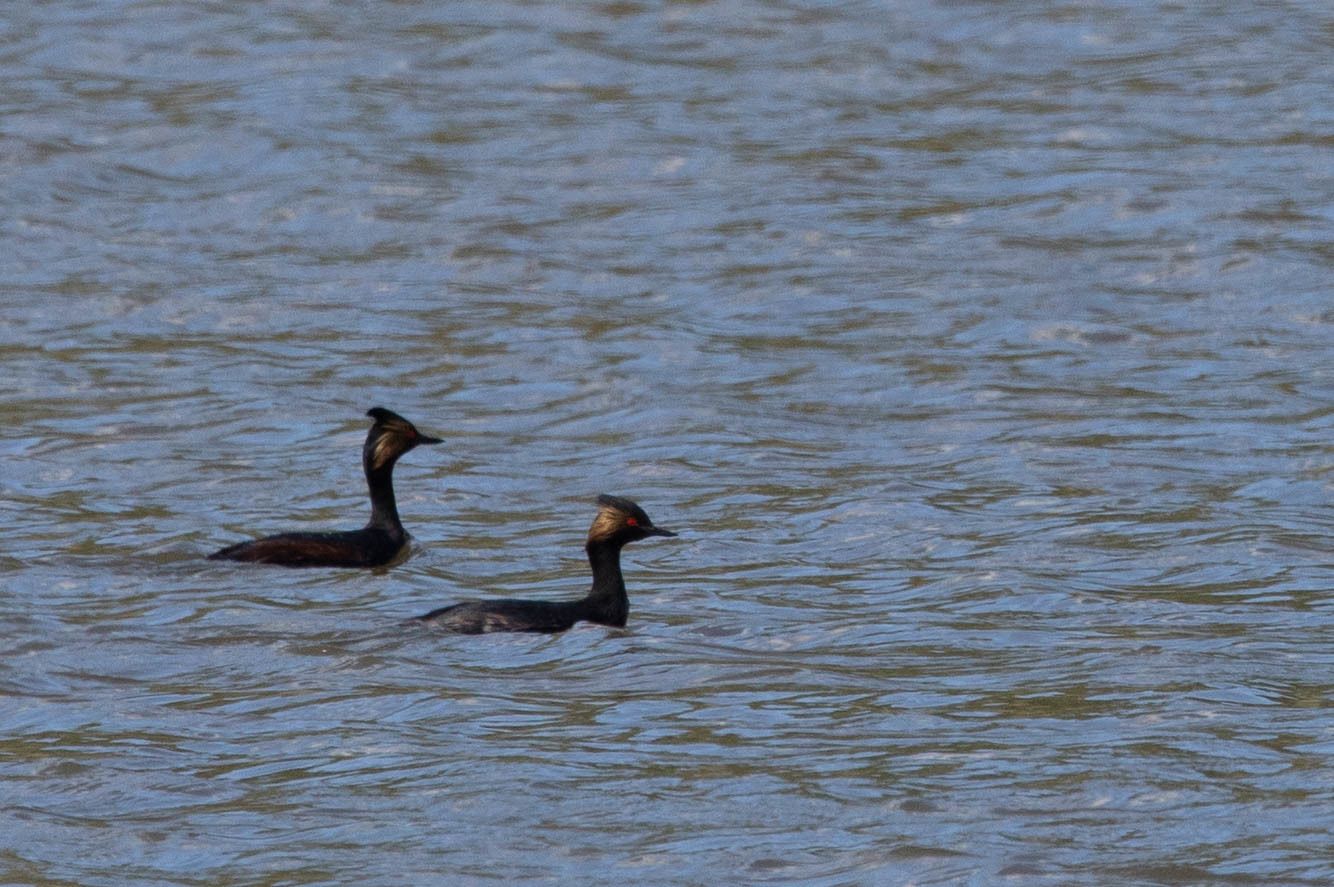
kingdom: Animalia
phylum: Chordata
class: Aves
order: Podicipediformes
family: Podicipedidae
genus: Podiceps
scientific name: Podiceps nigricollis
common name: Black-necked grebe
